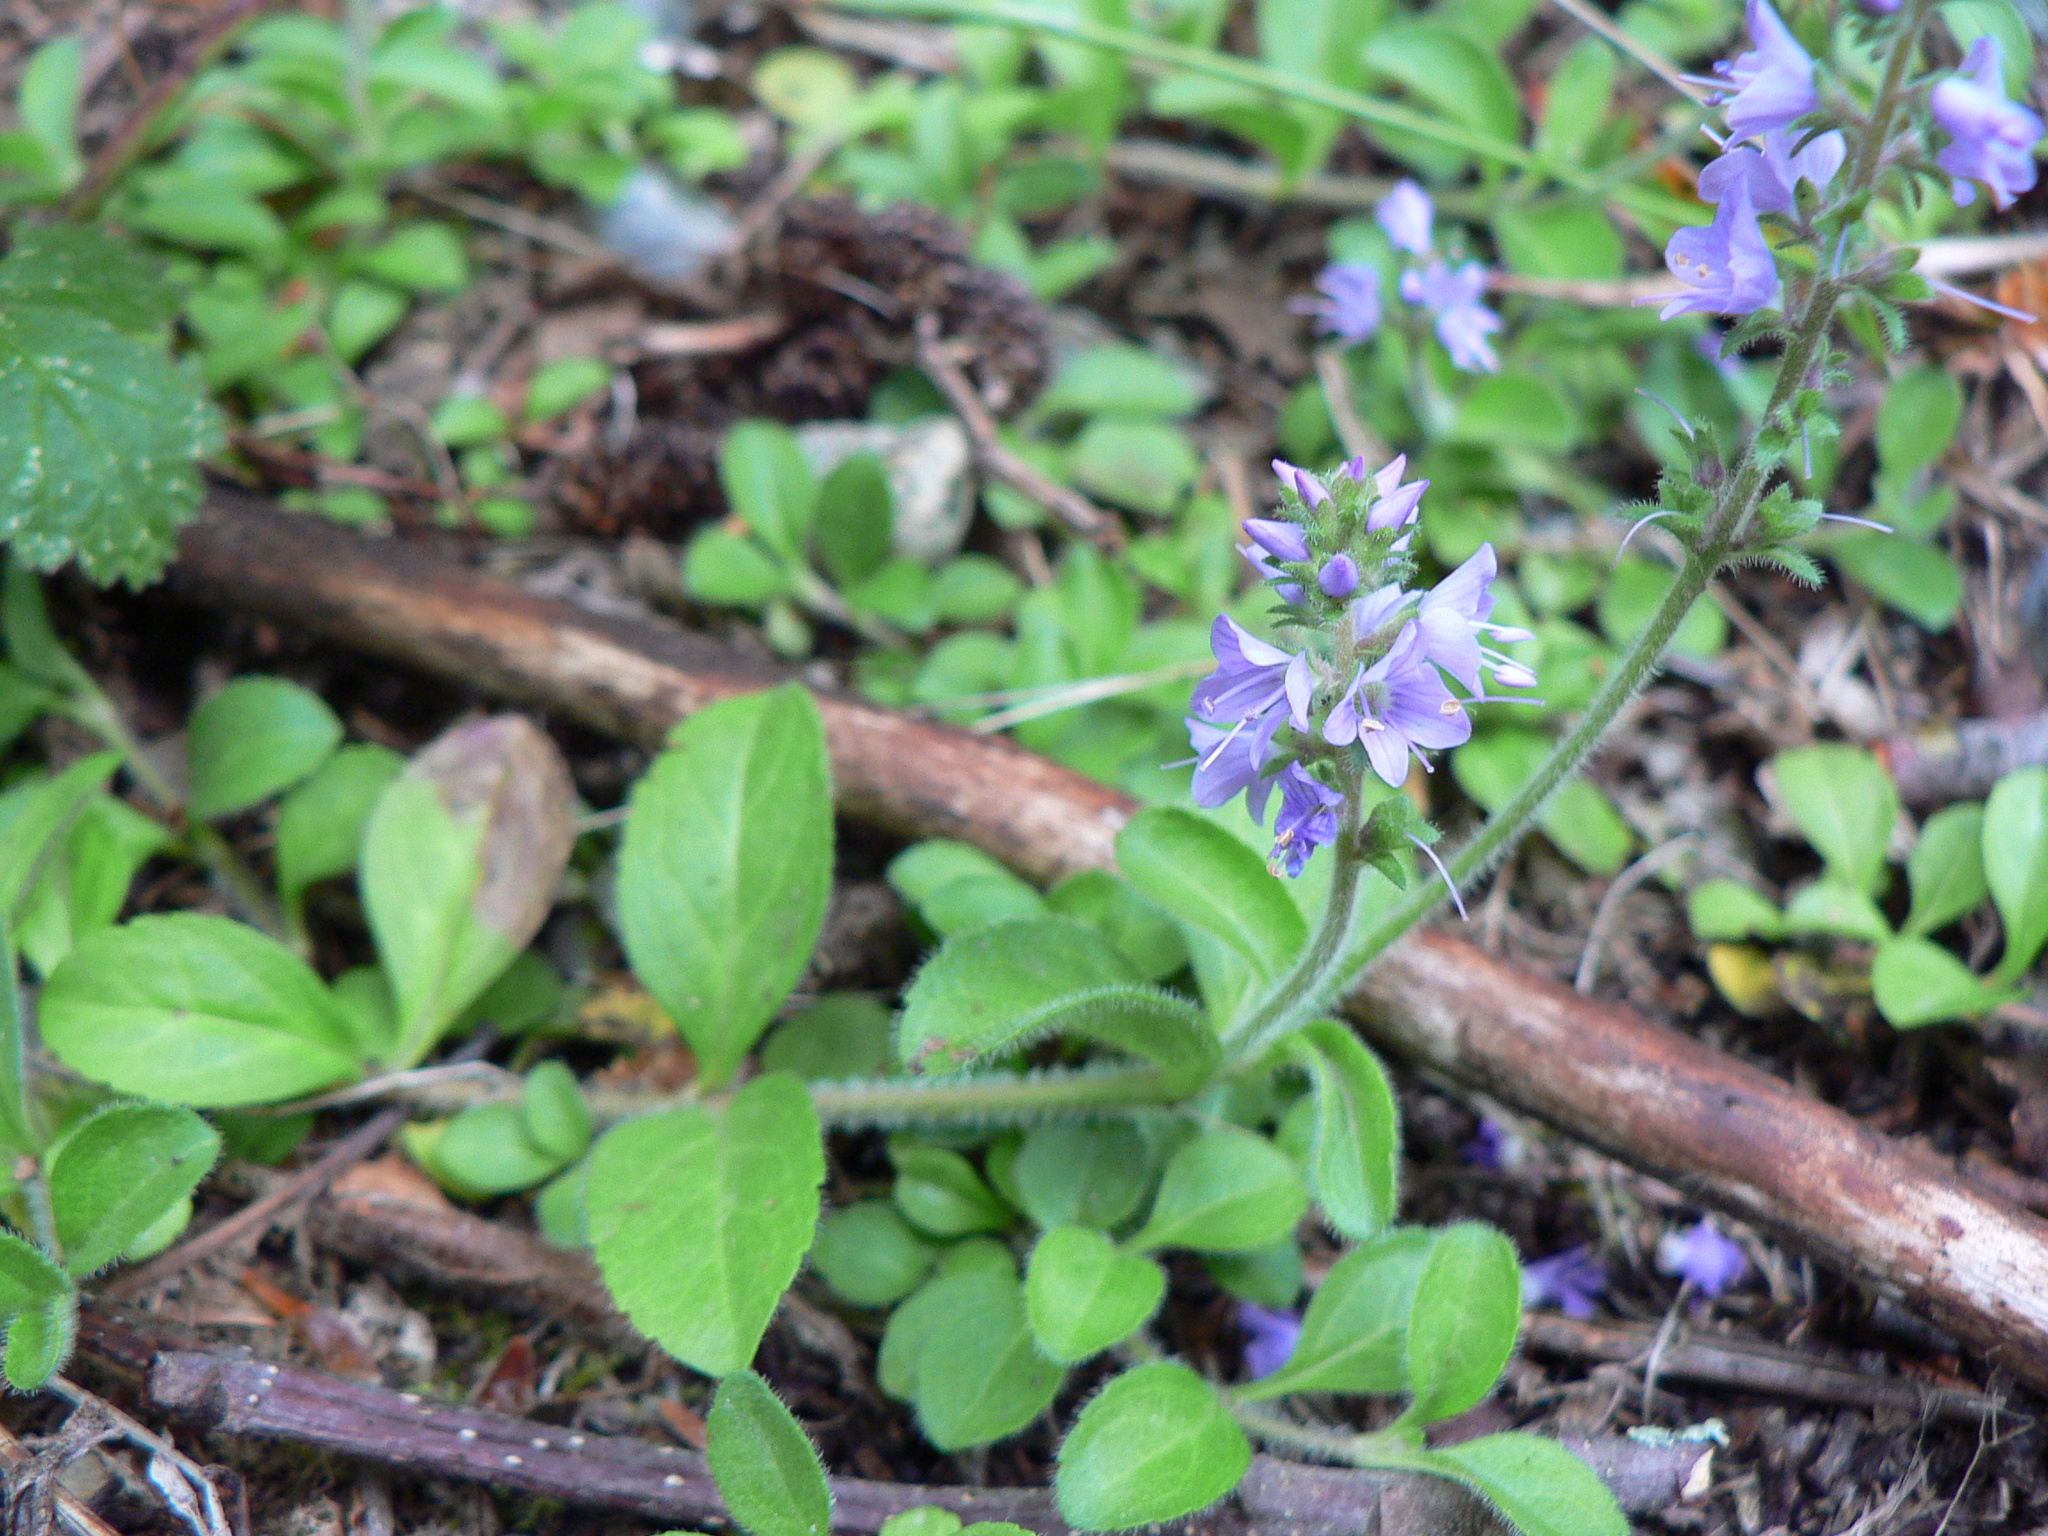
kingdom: Plantae
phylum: Tracheophyta
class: Magnoliopsida
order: Lamiales
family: Plantaginaceae
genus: Veronica
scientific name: Veronica officinalis
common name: Common speedwell
